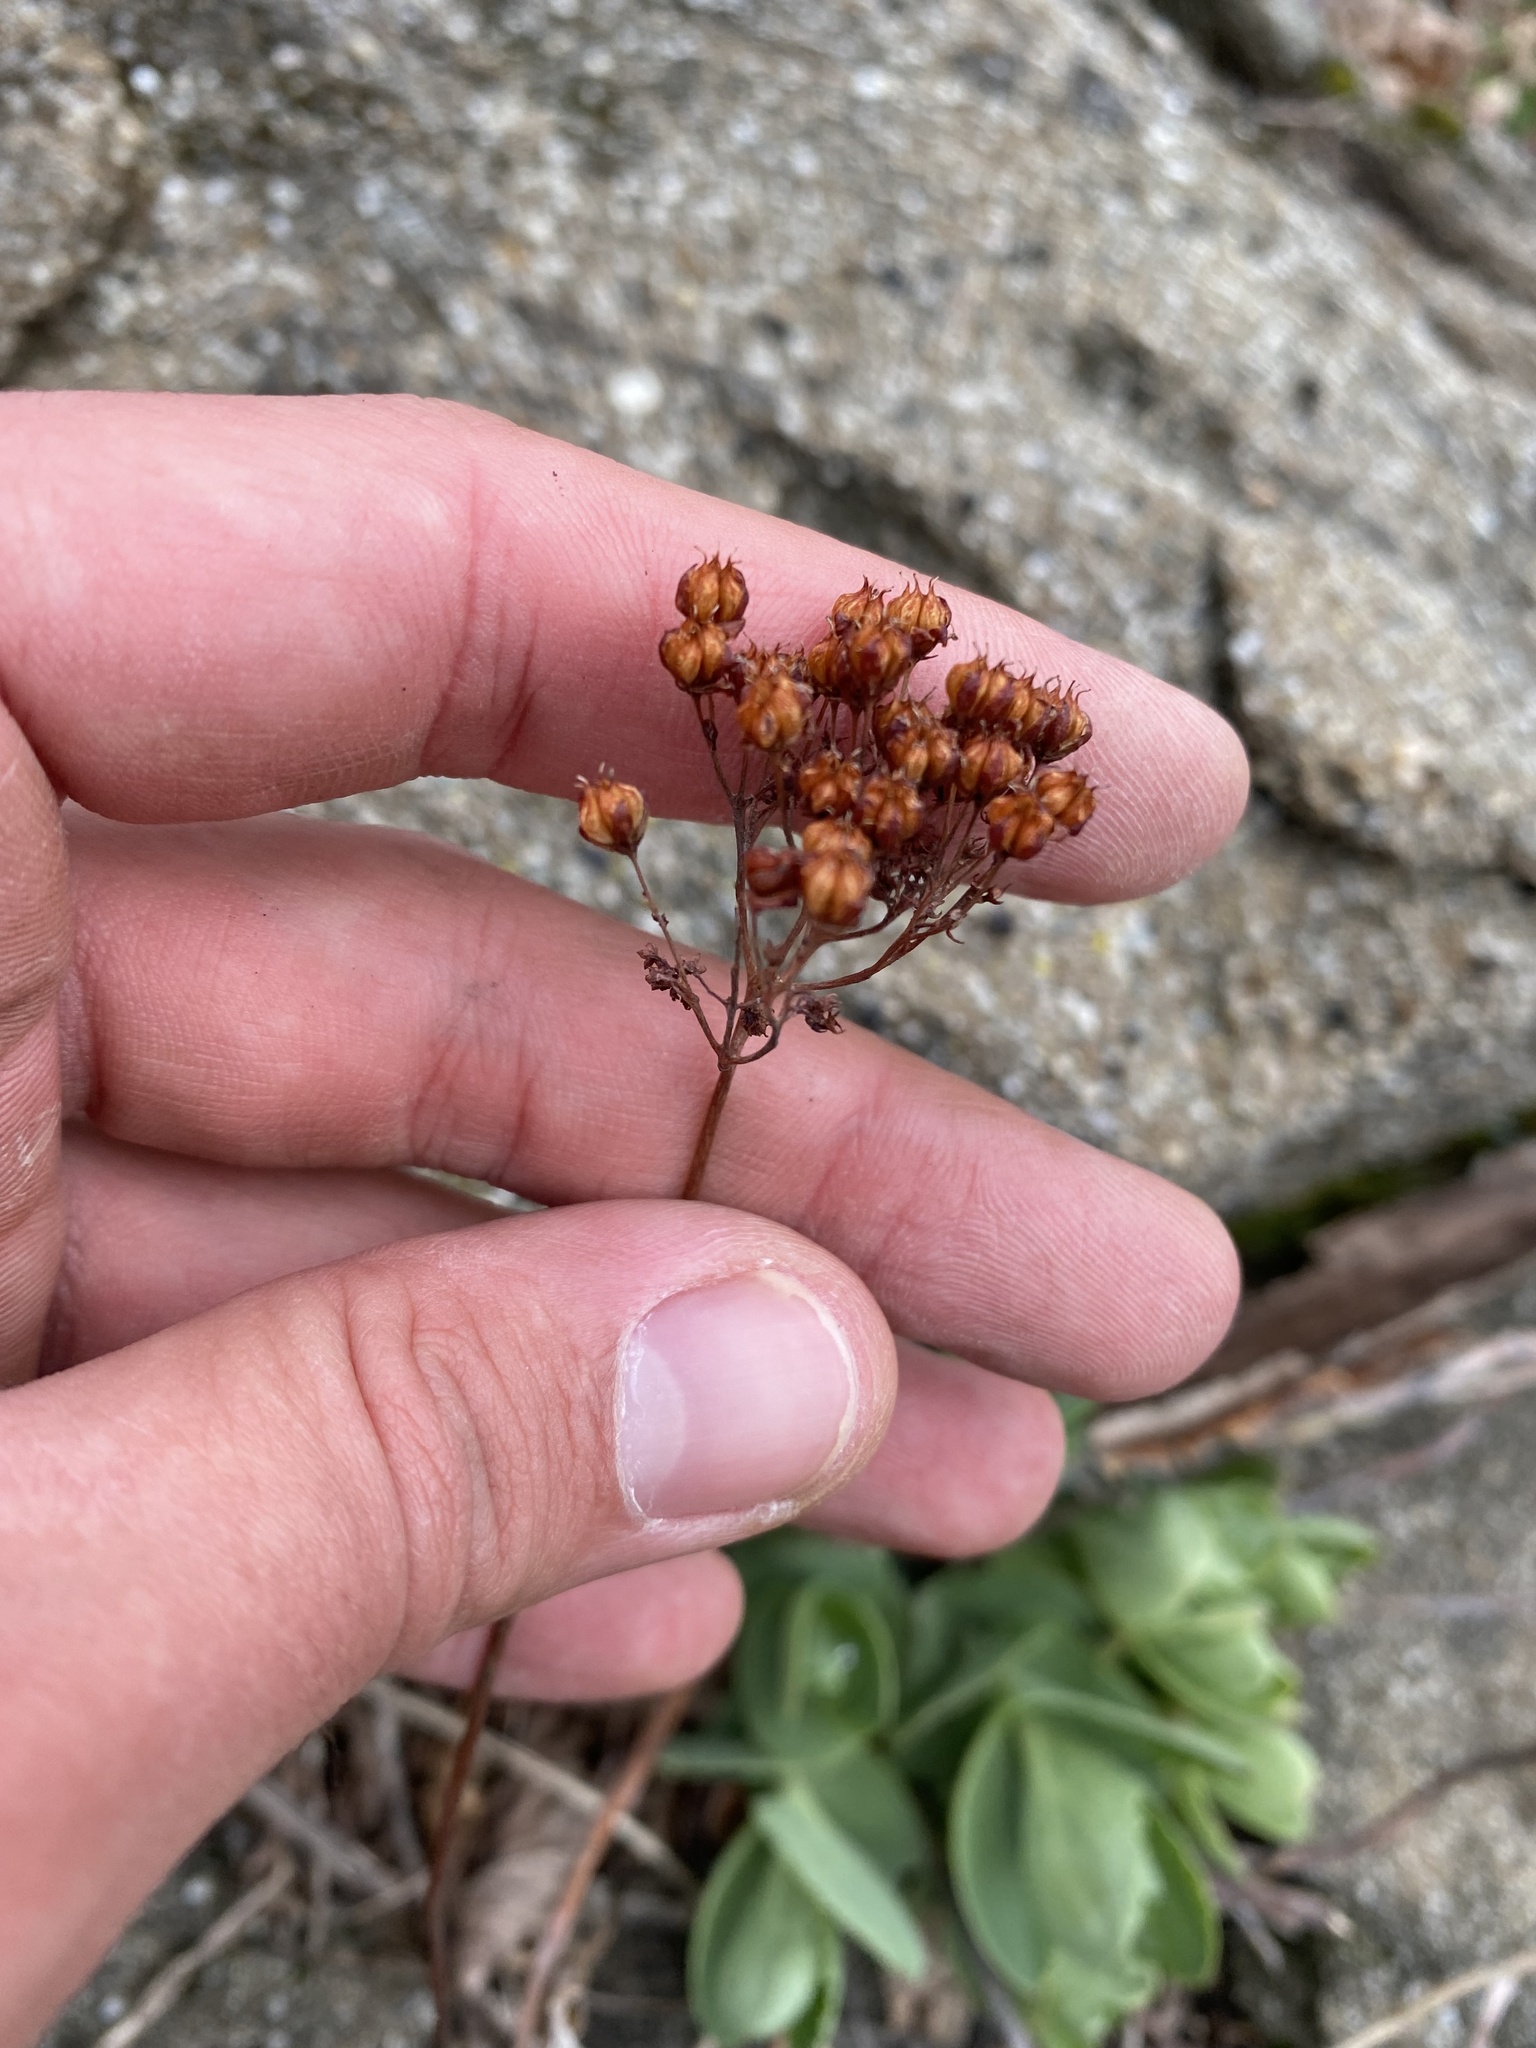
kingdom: Plantae
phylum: Tracheophyta
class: Magnoliopsida
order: Saxifragales
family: Crassulaceae
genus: Hylotelephium
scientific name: Hylotelephium maximum
